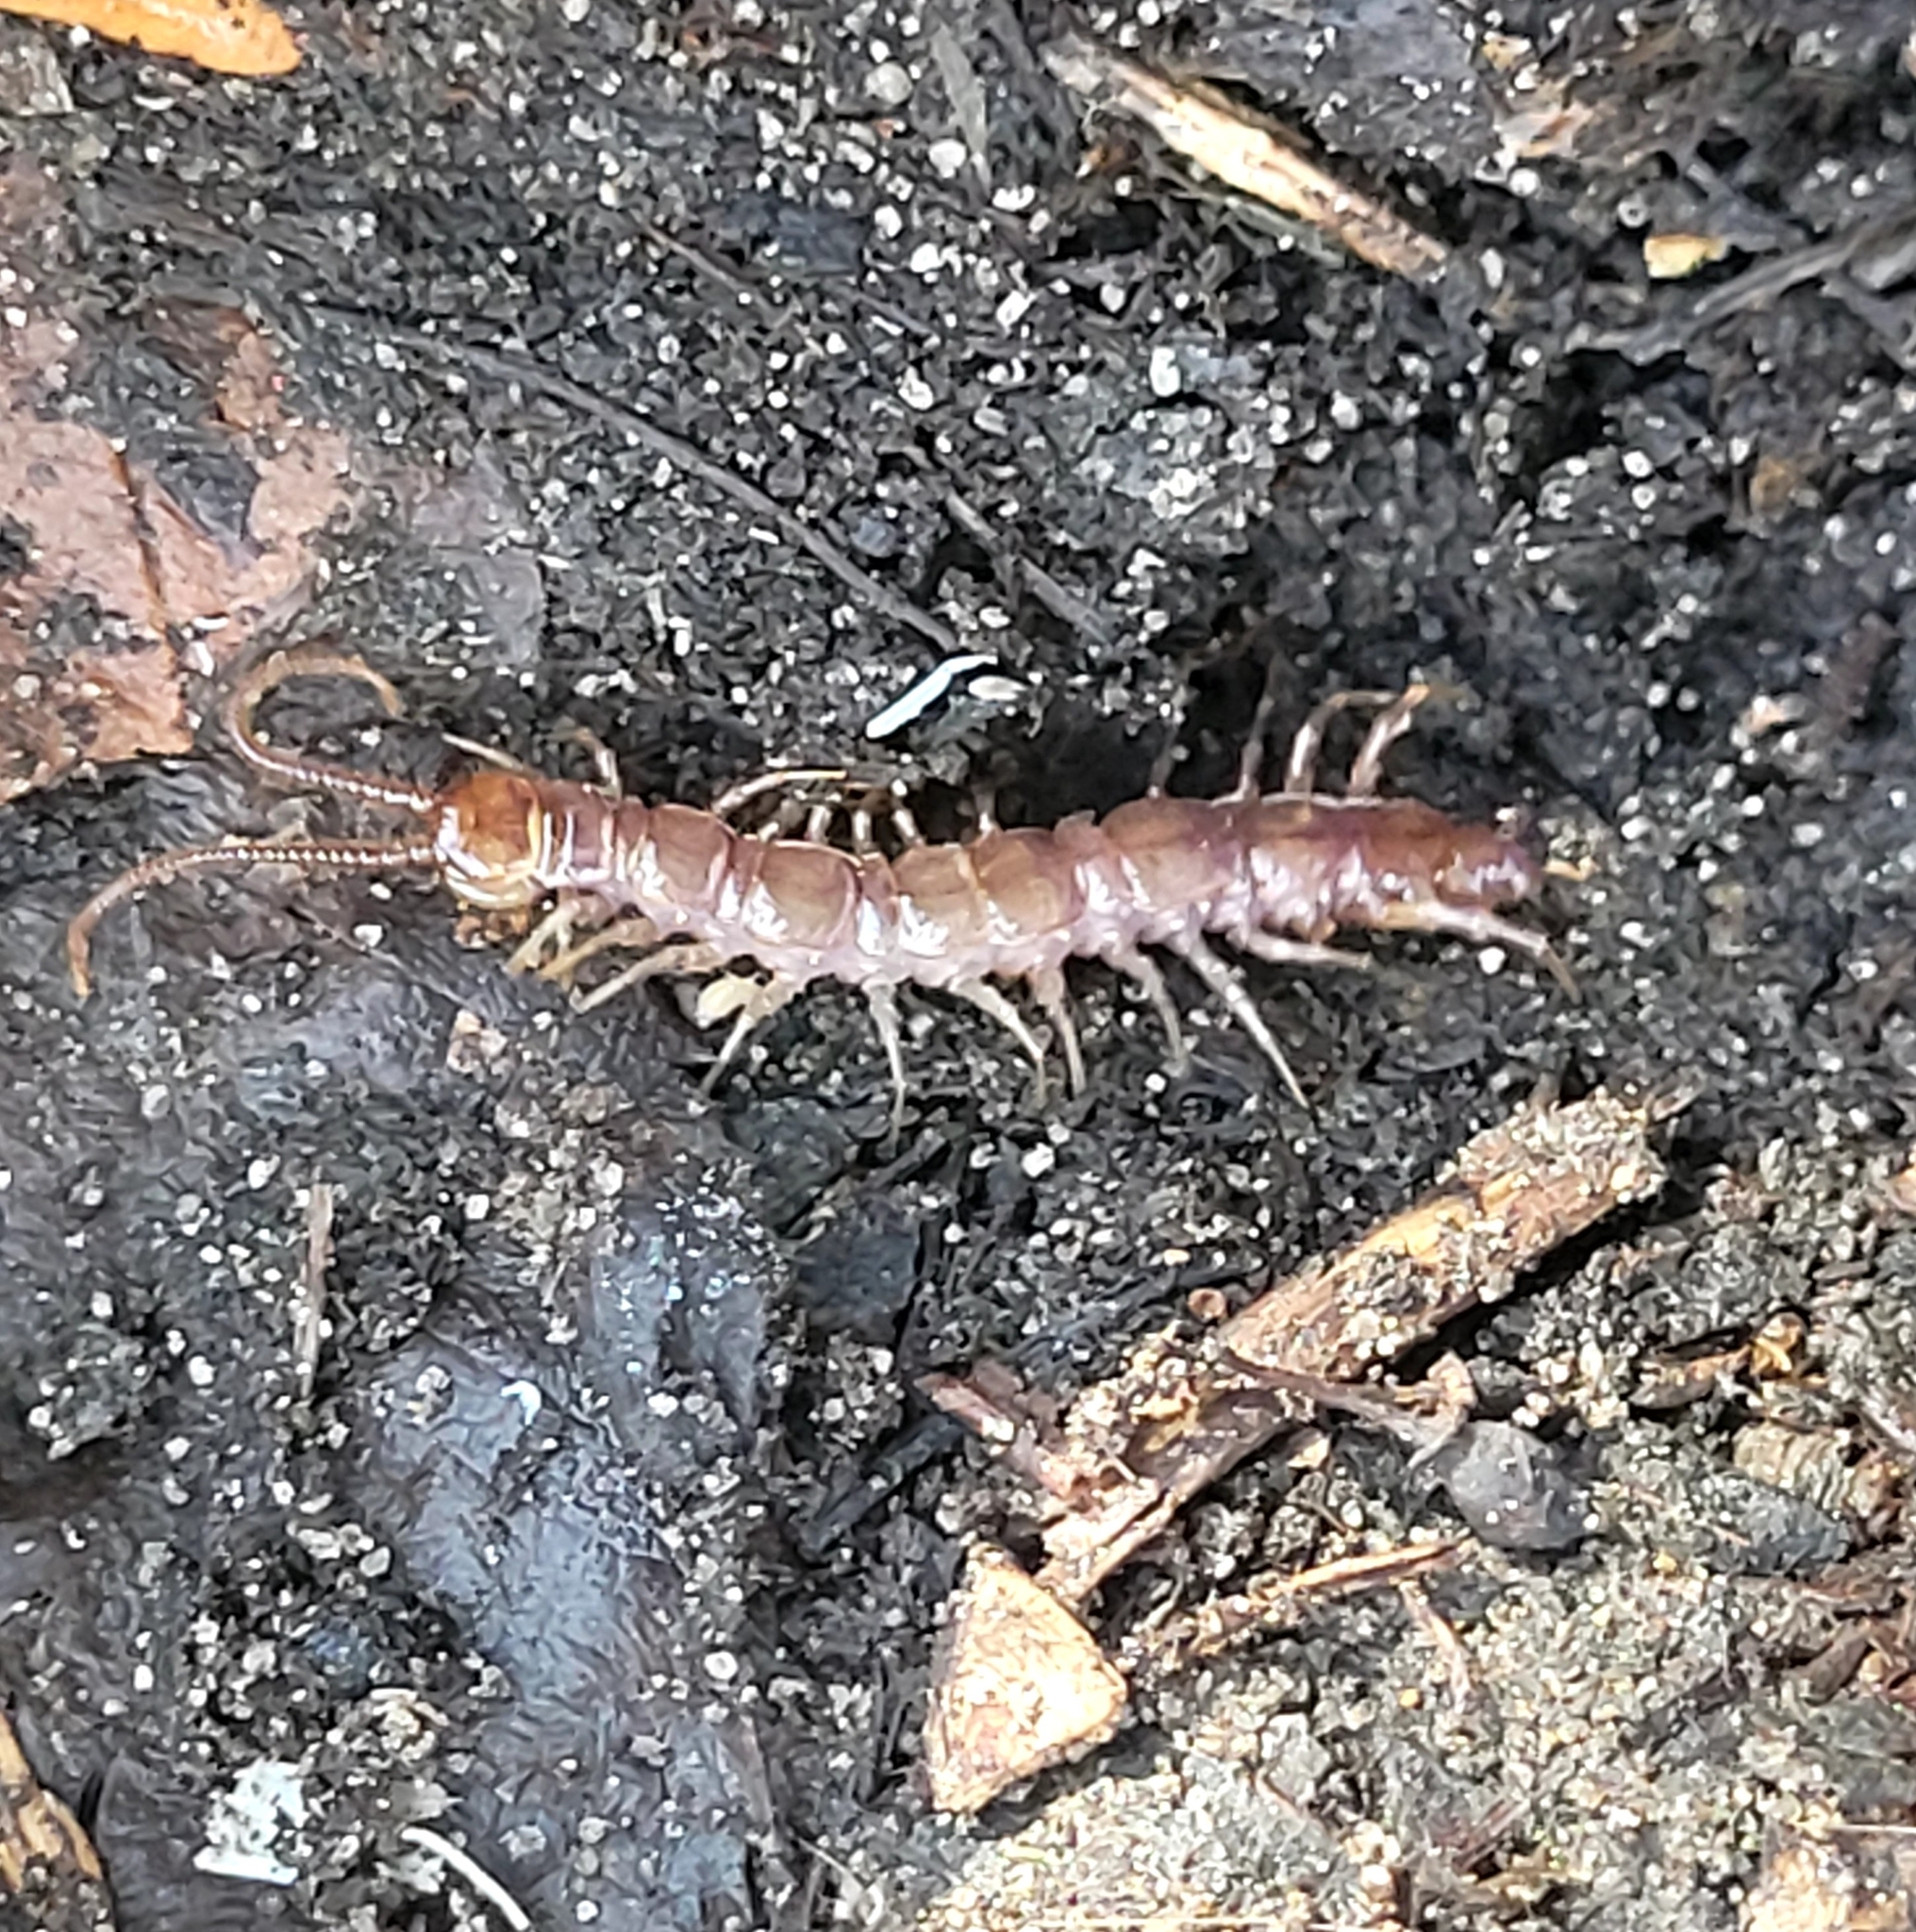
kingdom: Animalia
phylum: Arthropoda
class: Chilopoda
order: Lithobiomorpha
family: Lithobiidae
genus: Lithobius
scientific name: Lithobius forficatus
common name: Centipede
